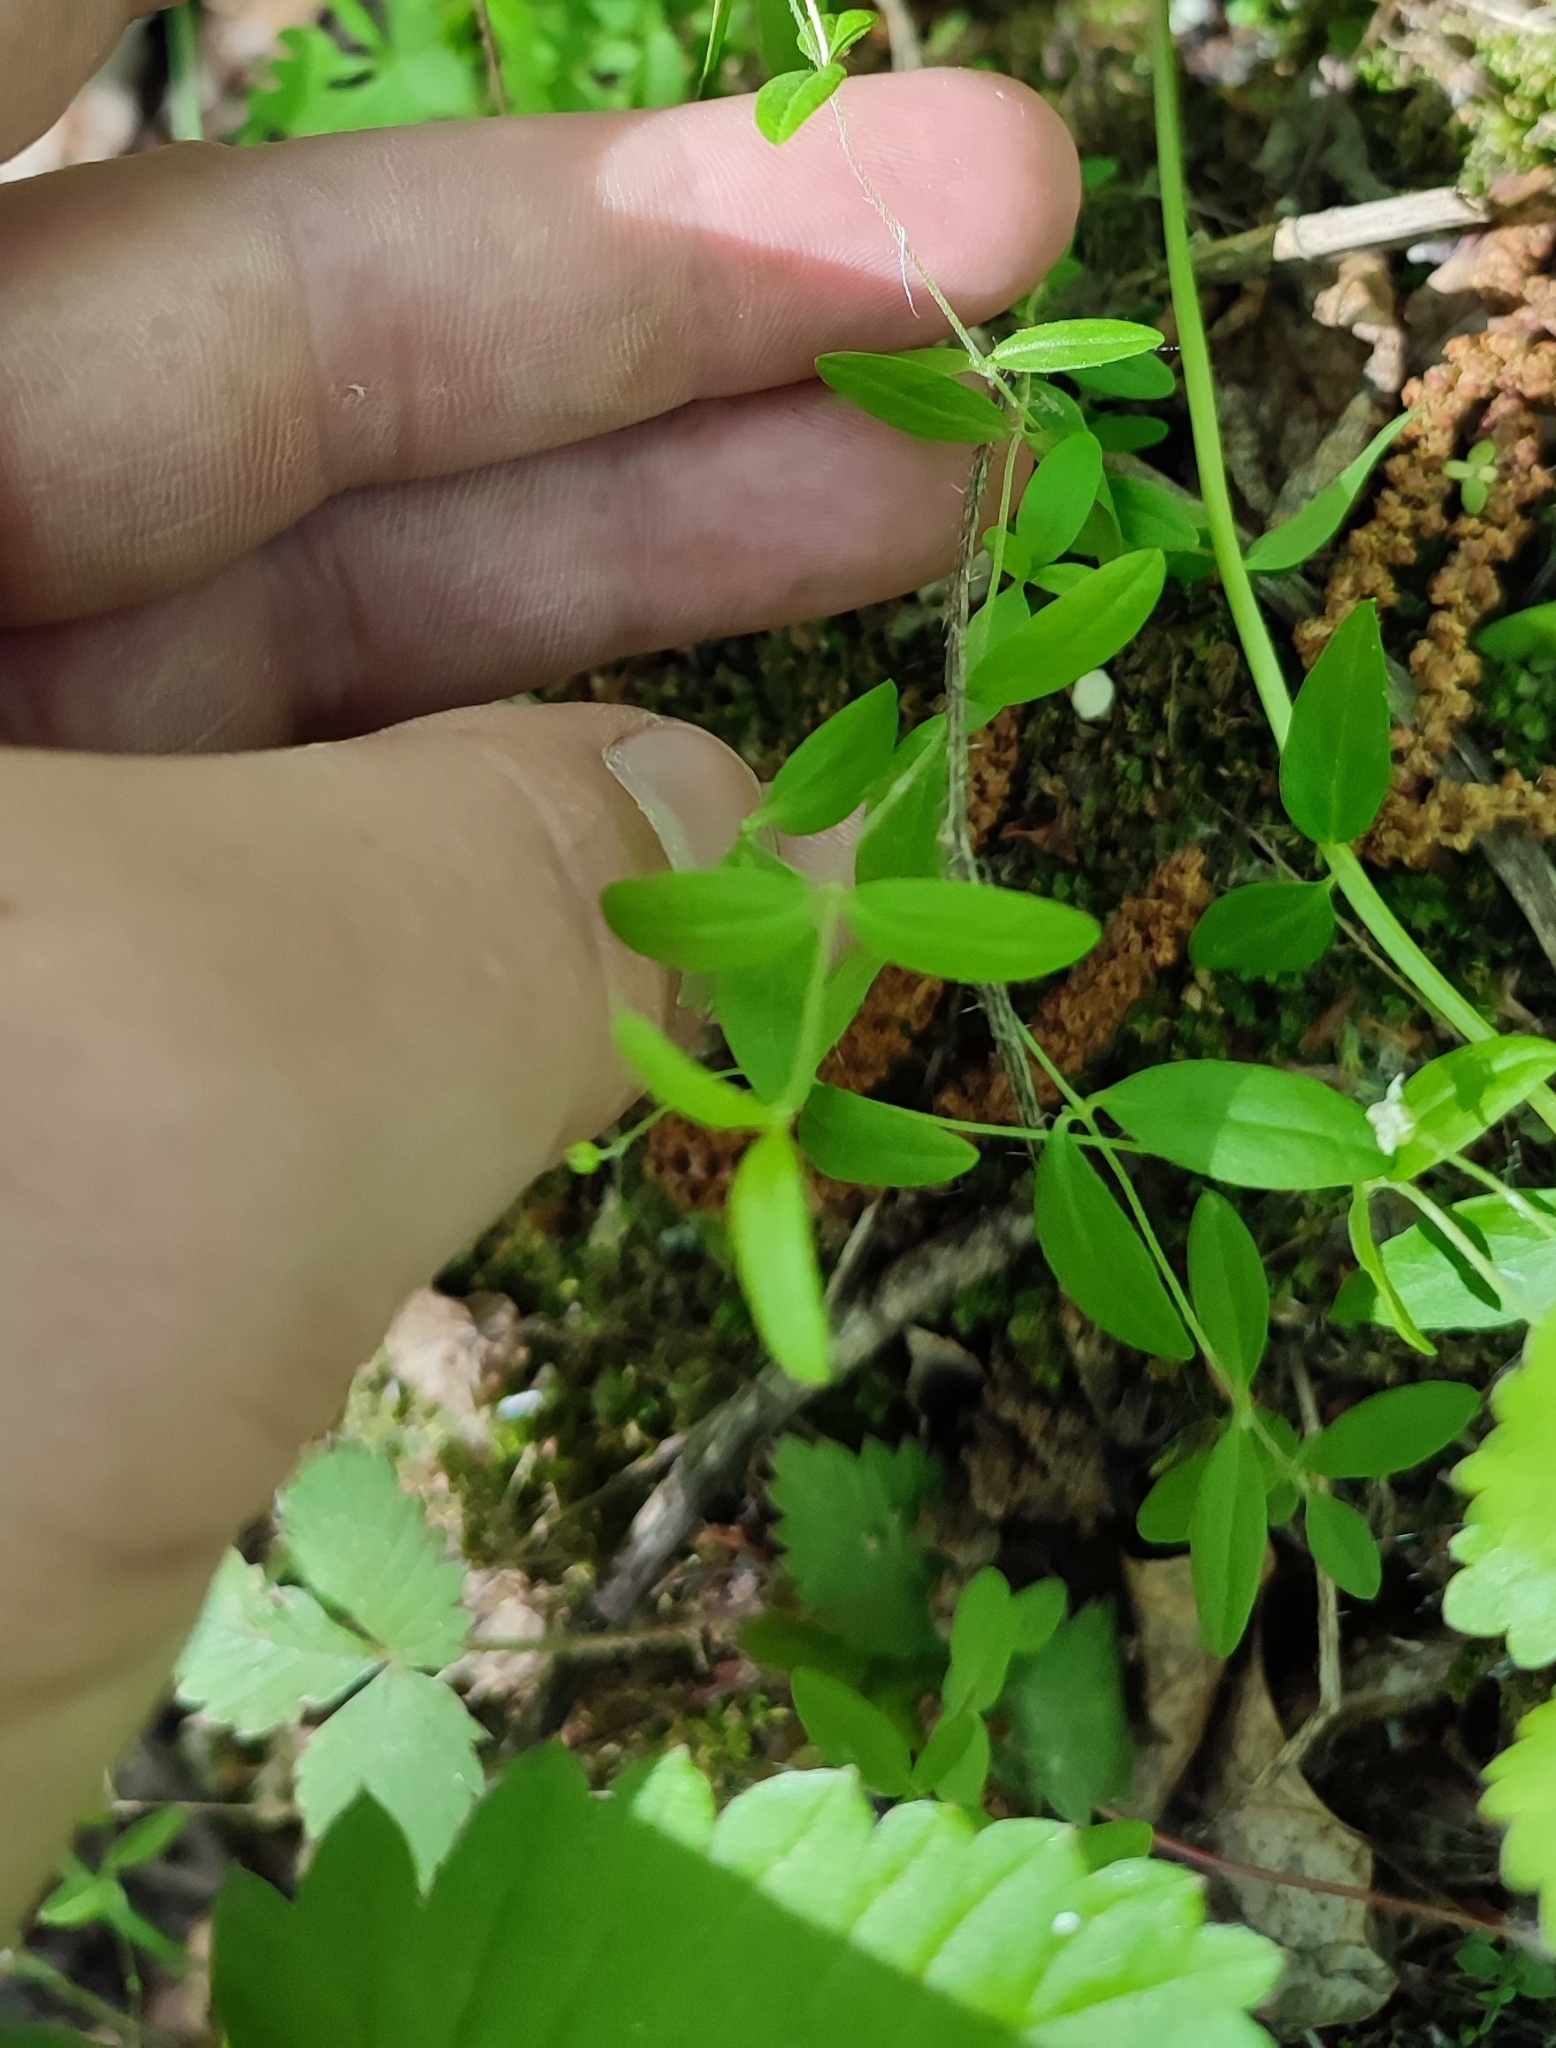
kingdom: Plantae
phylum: Tracheophyta
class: Magnoliopsida
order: Caryophyllales
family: Caryophyllaceae
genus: Moehringia
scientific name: Moehringia lateriflora
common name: Blunt-leaved sandwort
